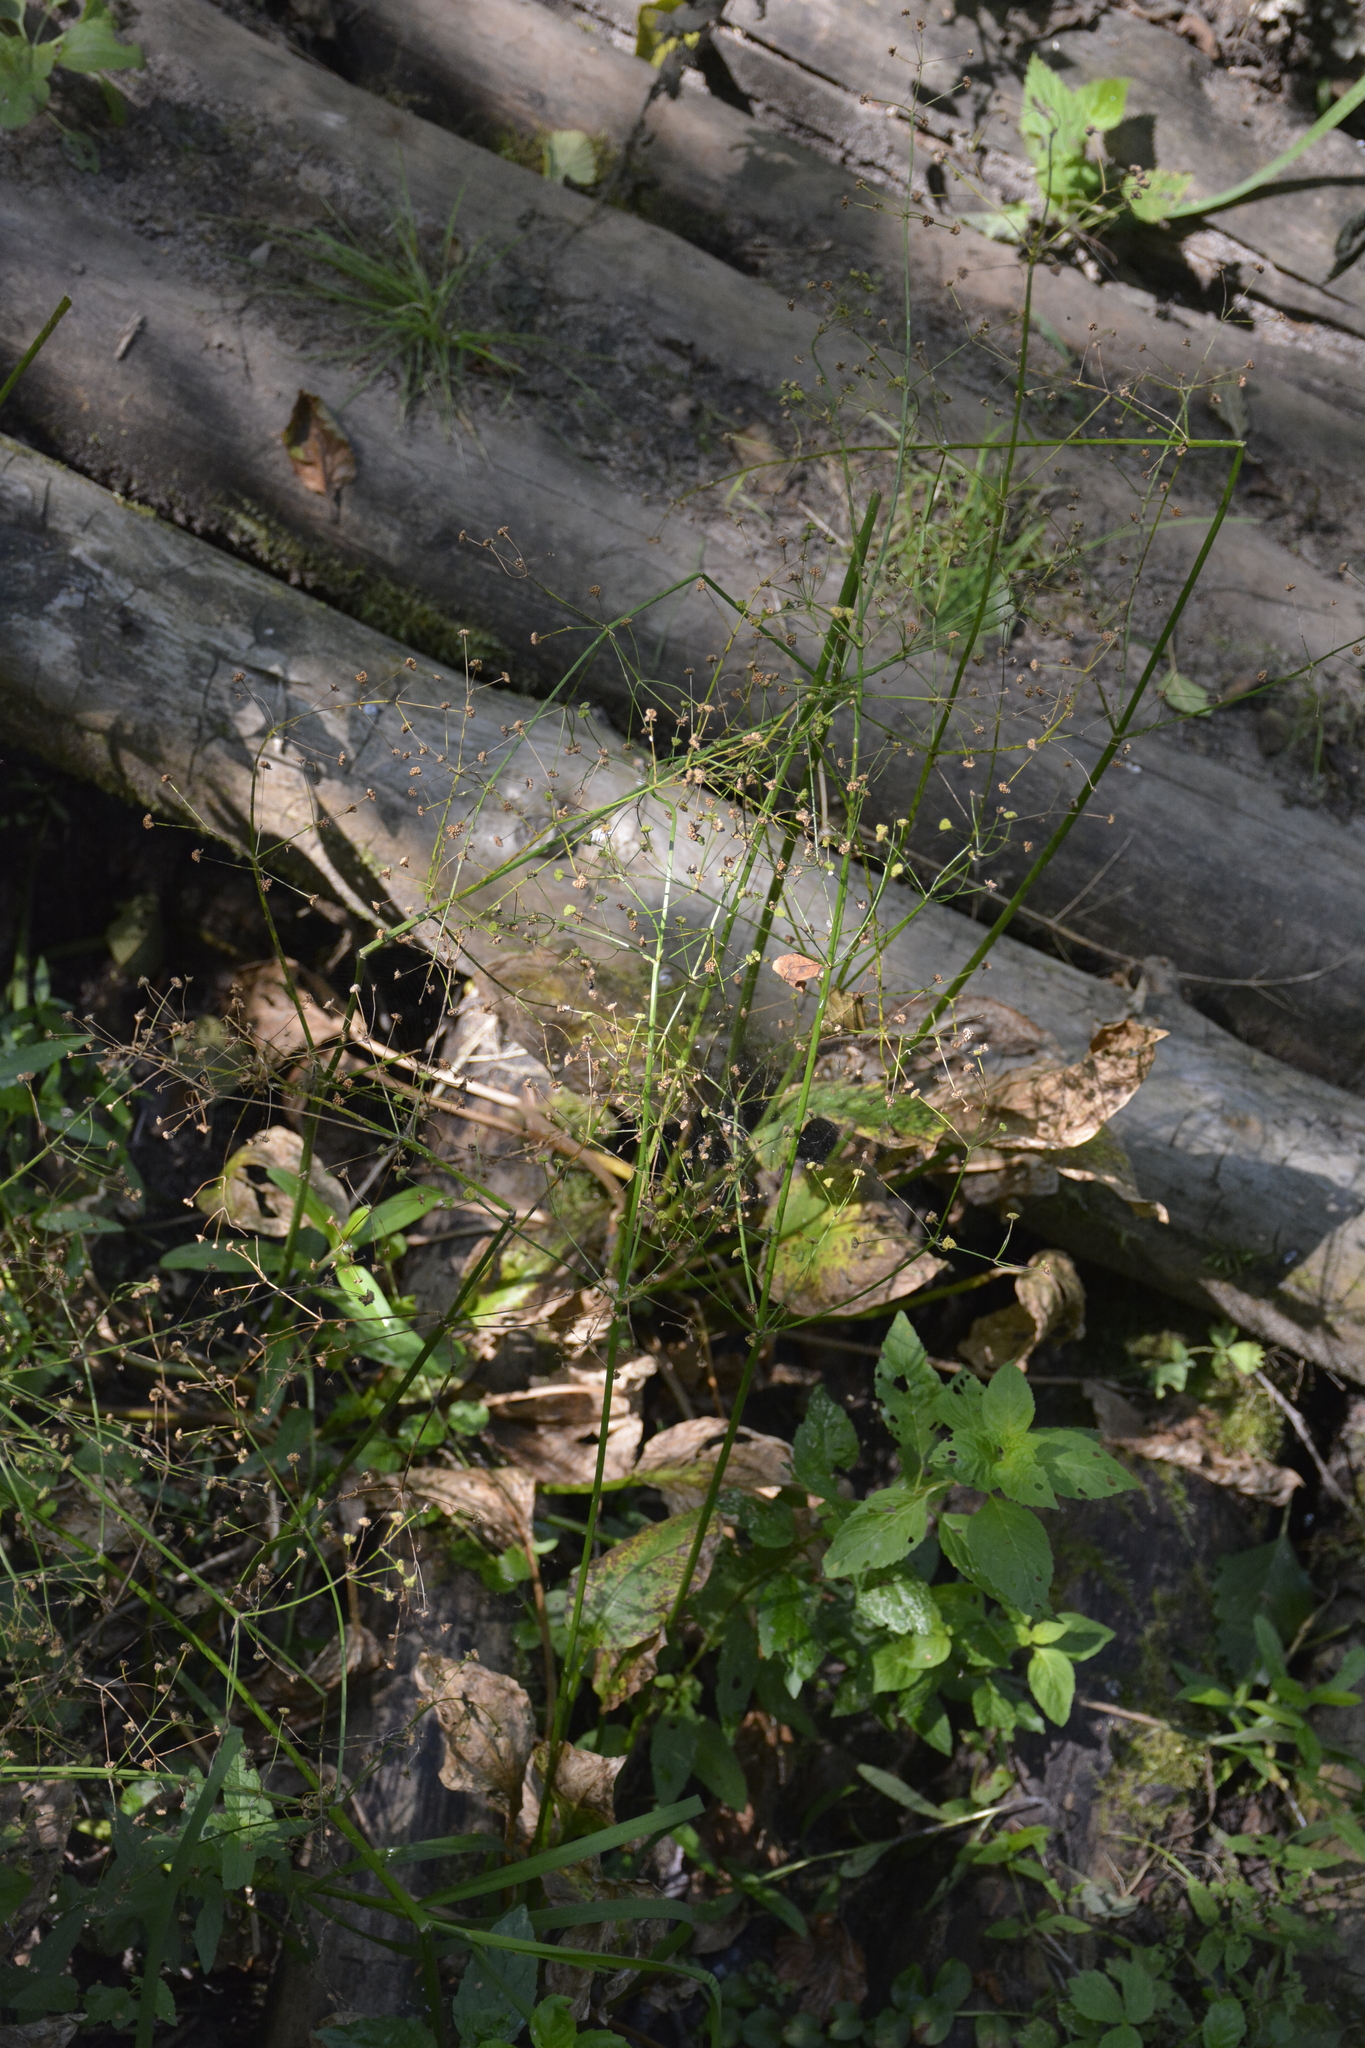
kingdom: Plantae
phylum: Tracheophyta
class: Liliopsida
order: Alismatales
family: Alismataceae
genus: Alisma
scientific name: Alisma plantago-aquatica
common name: Water-plantain
